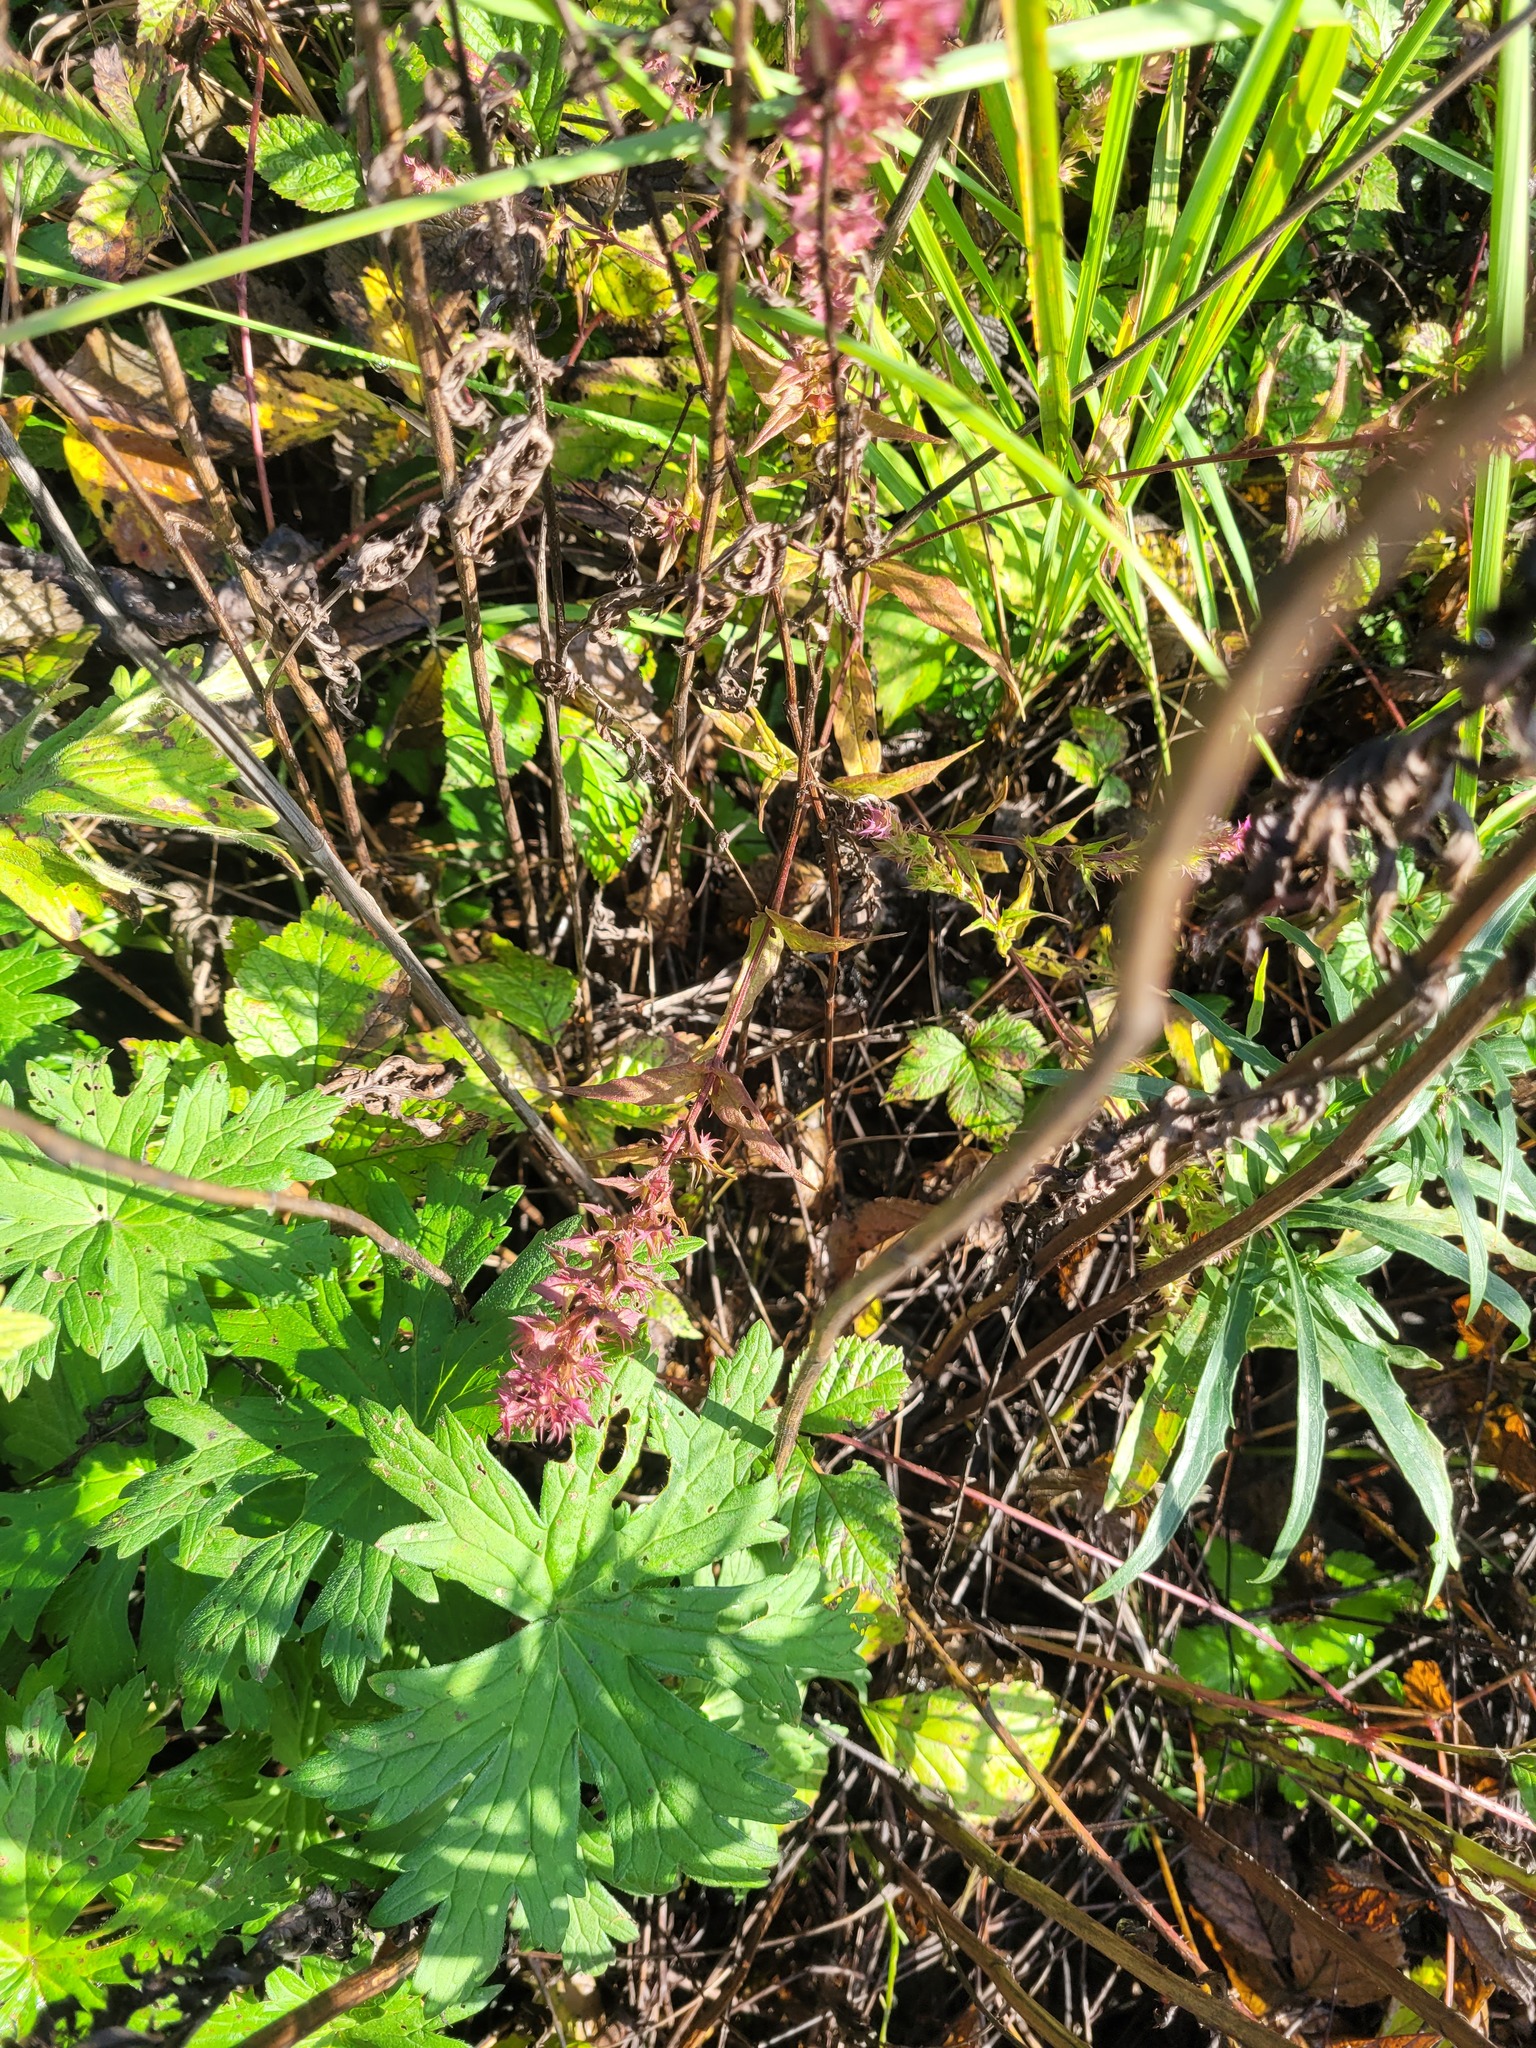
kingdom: Plantae
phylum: Tracheophyta
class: Magnoliopsida
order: Lamiales
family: Orobanchaceae
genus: Melampyrum
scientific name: Melampyrum nemorosum
